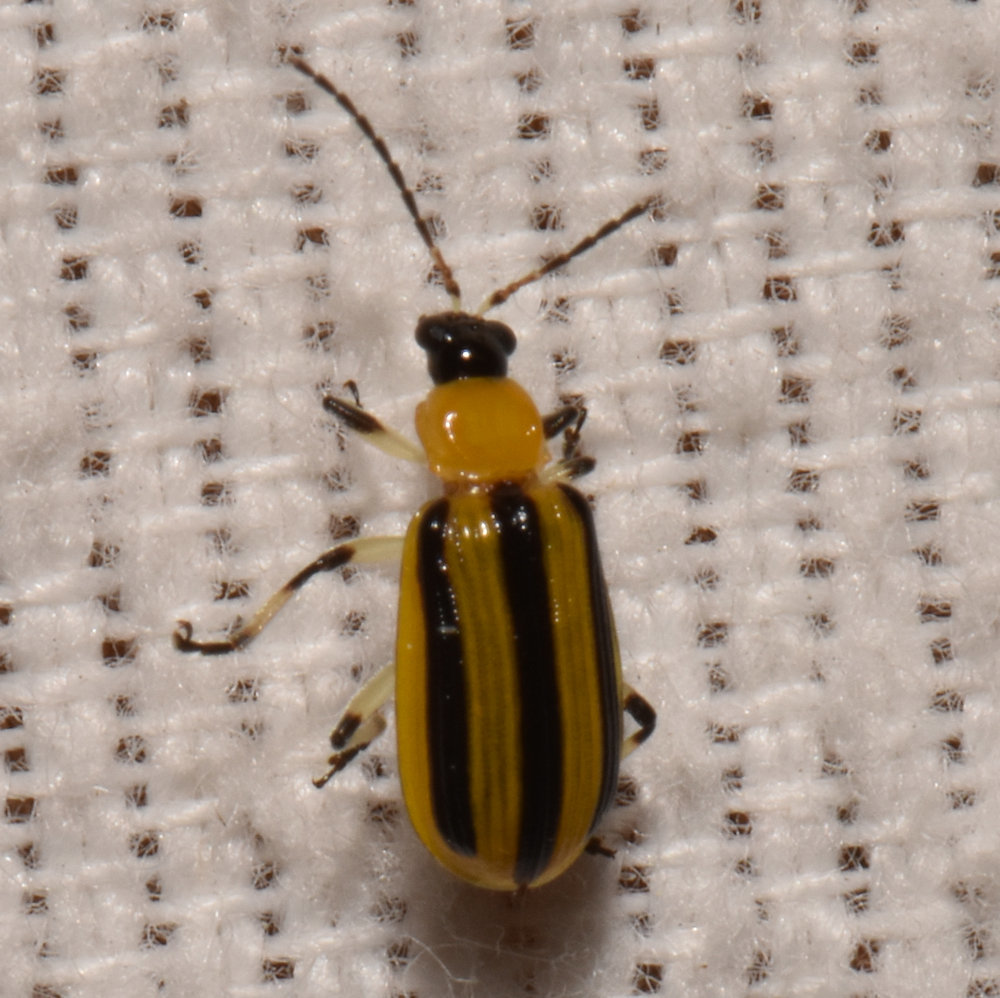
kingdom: Animalia
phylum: Arthropoda
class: Insecta
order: Coleoptera
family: Chrysomelidae
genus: Acalymma
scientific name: Acalymma vittatum
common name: Striped cucumber beetle
